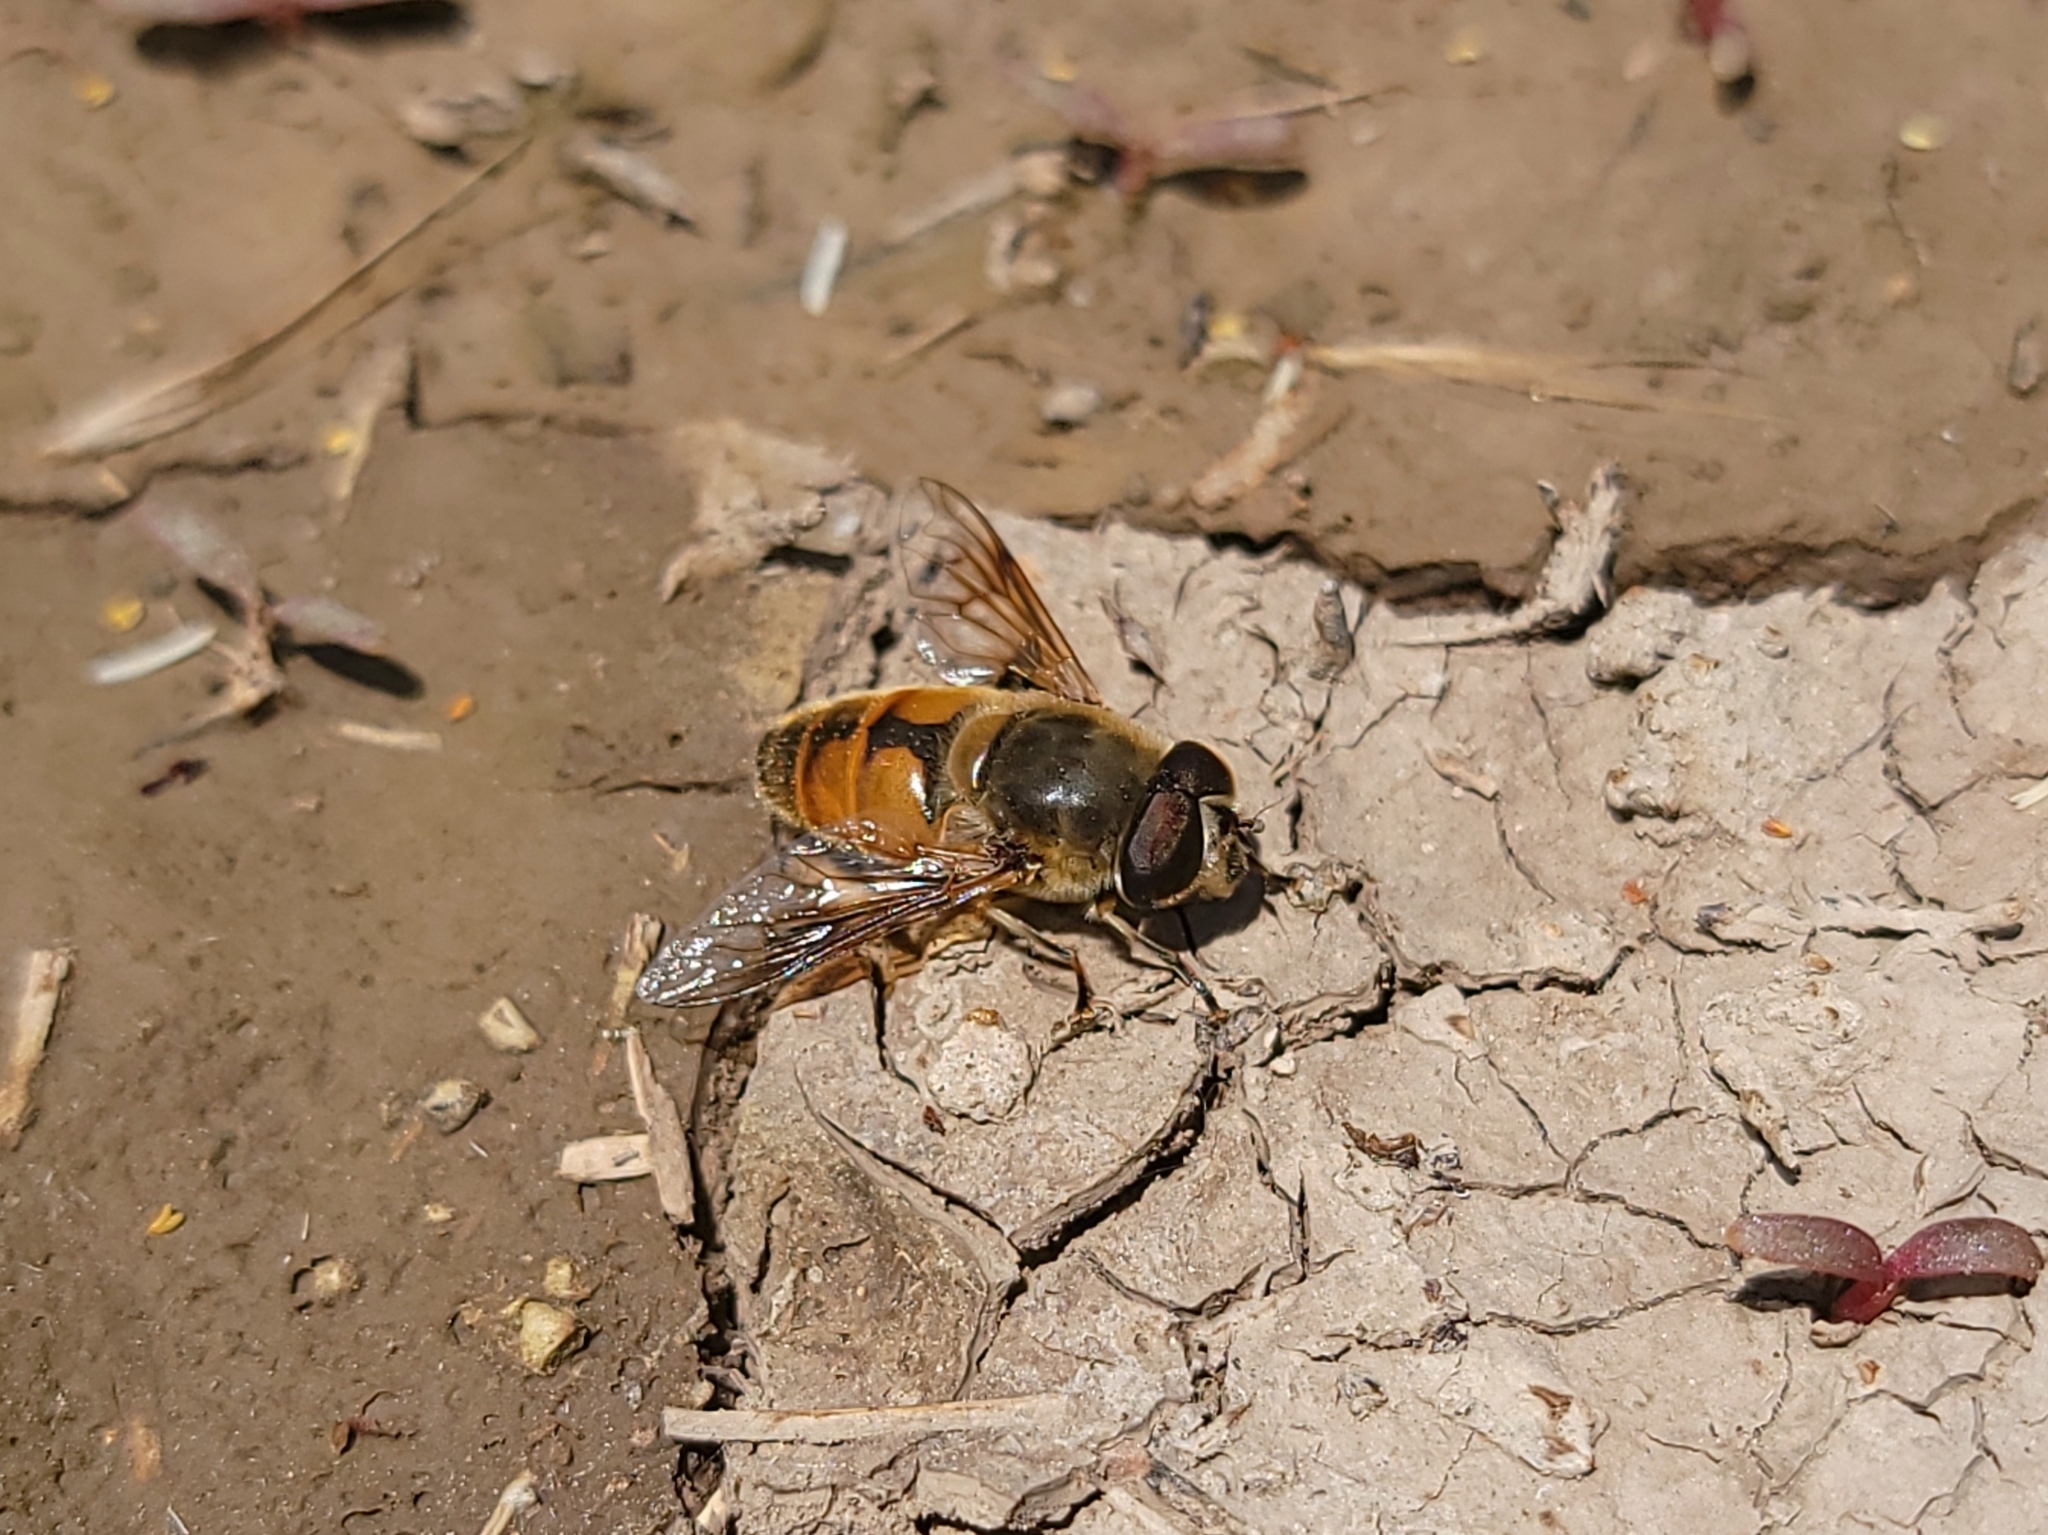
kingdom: Animalia
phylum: Arthropoda
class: Insecta
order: Diptera
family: Syrphidae
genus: Eristalis
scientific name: Eristalis tenax
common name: Drone fly
